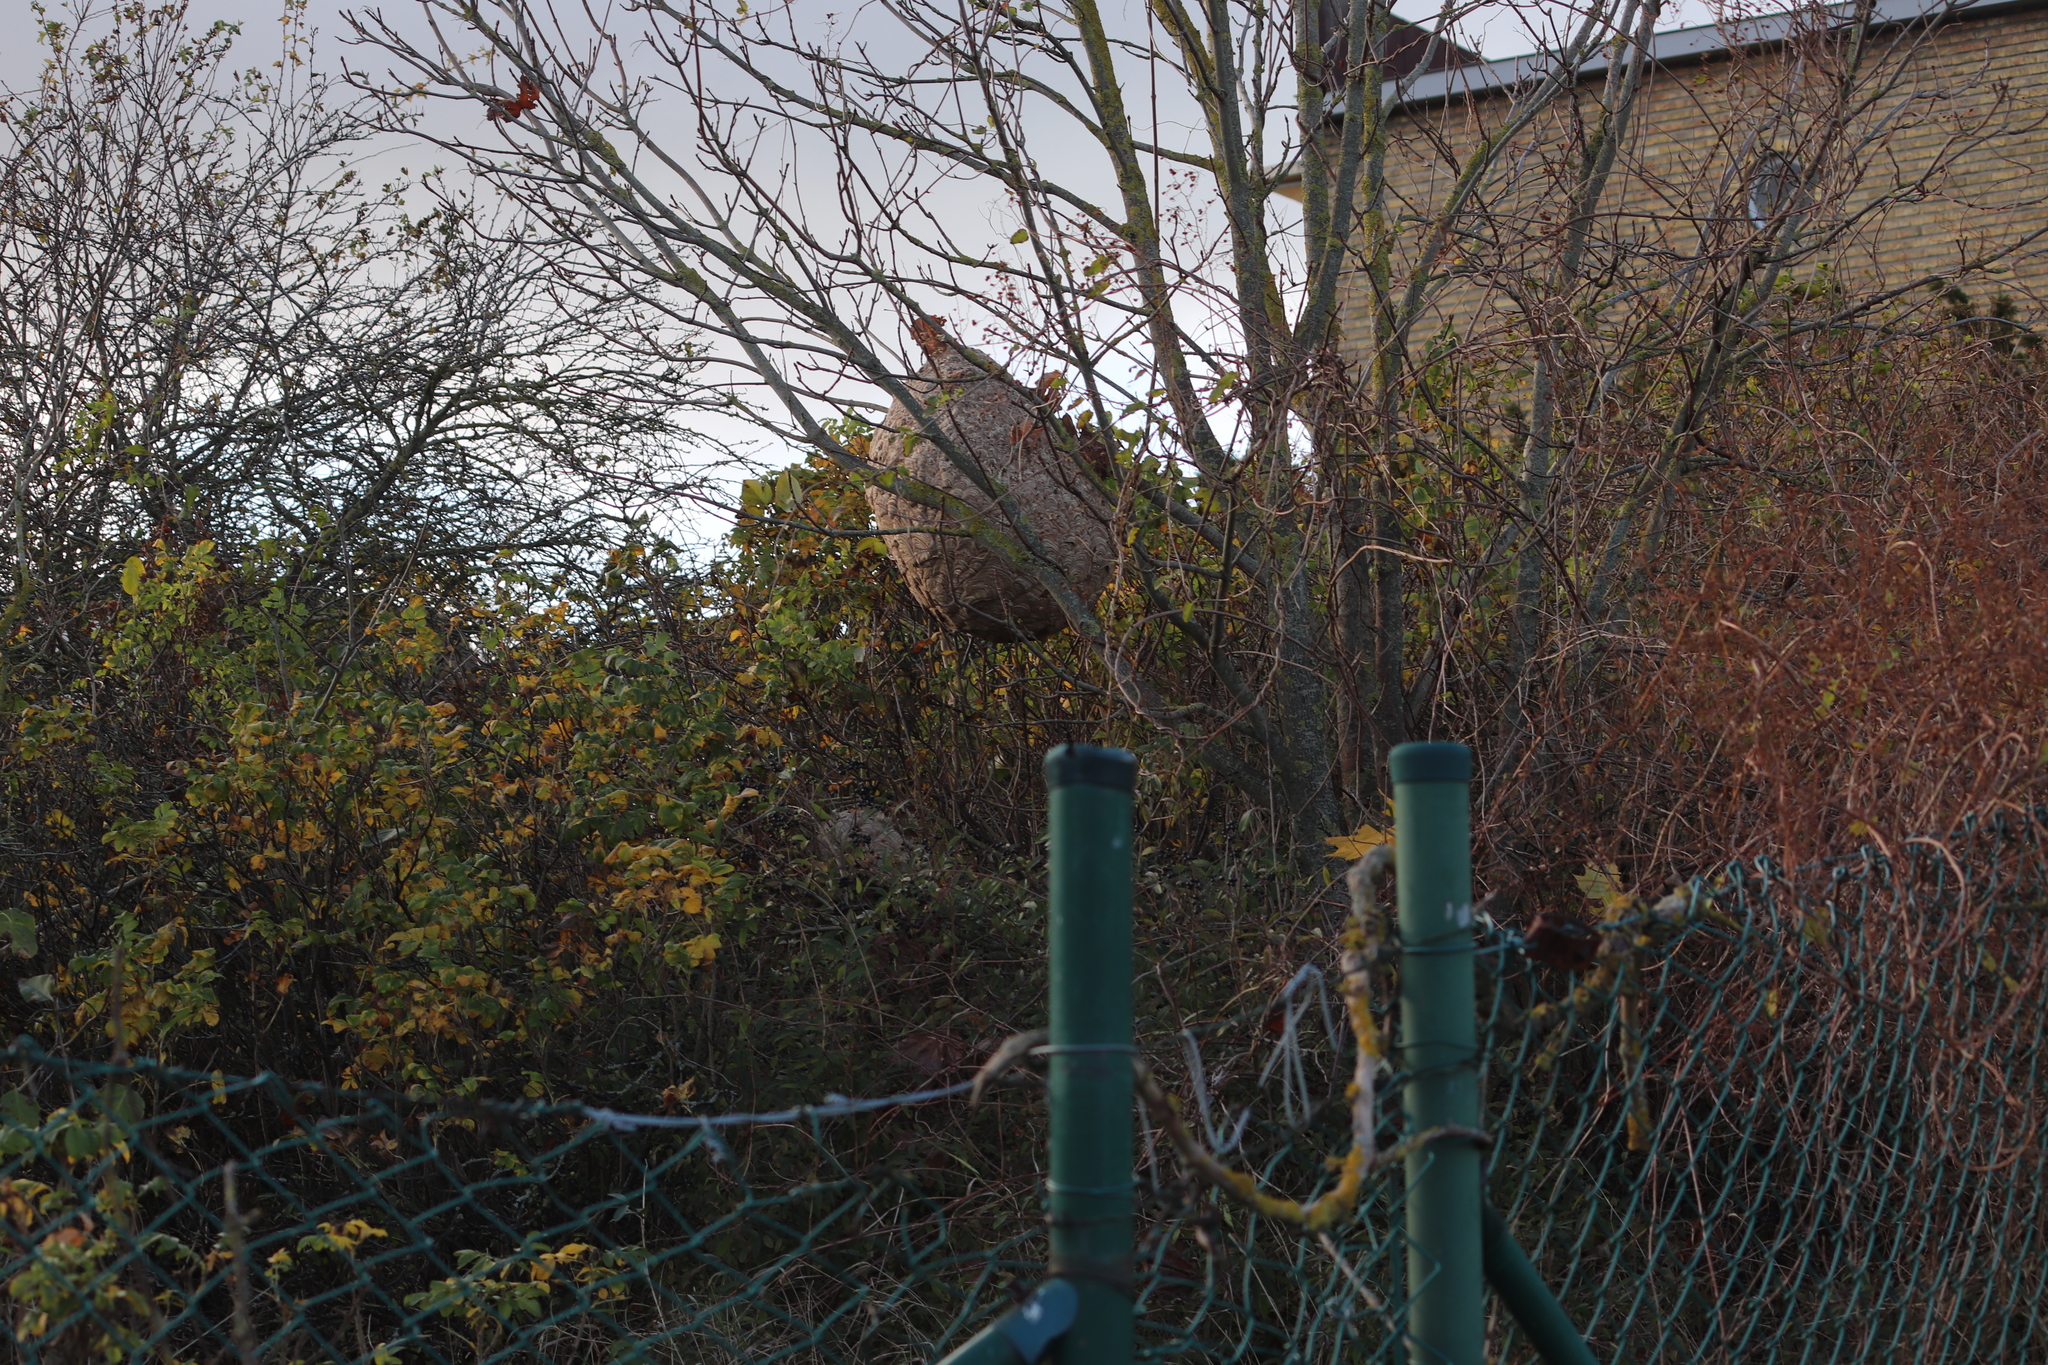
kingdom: Animalia
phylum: Arthropoda
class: Insecta
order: Hymenoptera
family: Vespidae
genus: Vespa
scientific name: Vespa velutina
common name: Asian hornet
